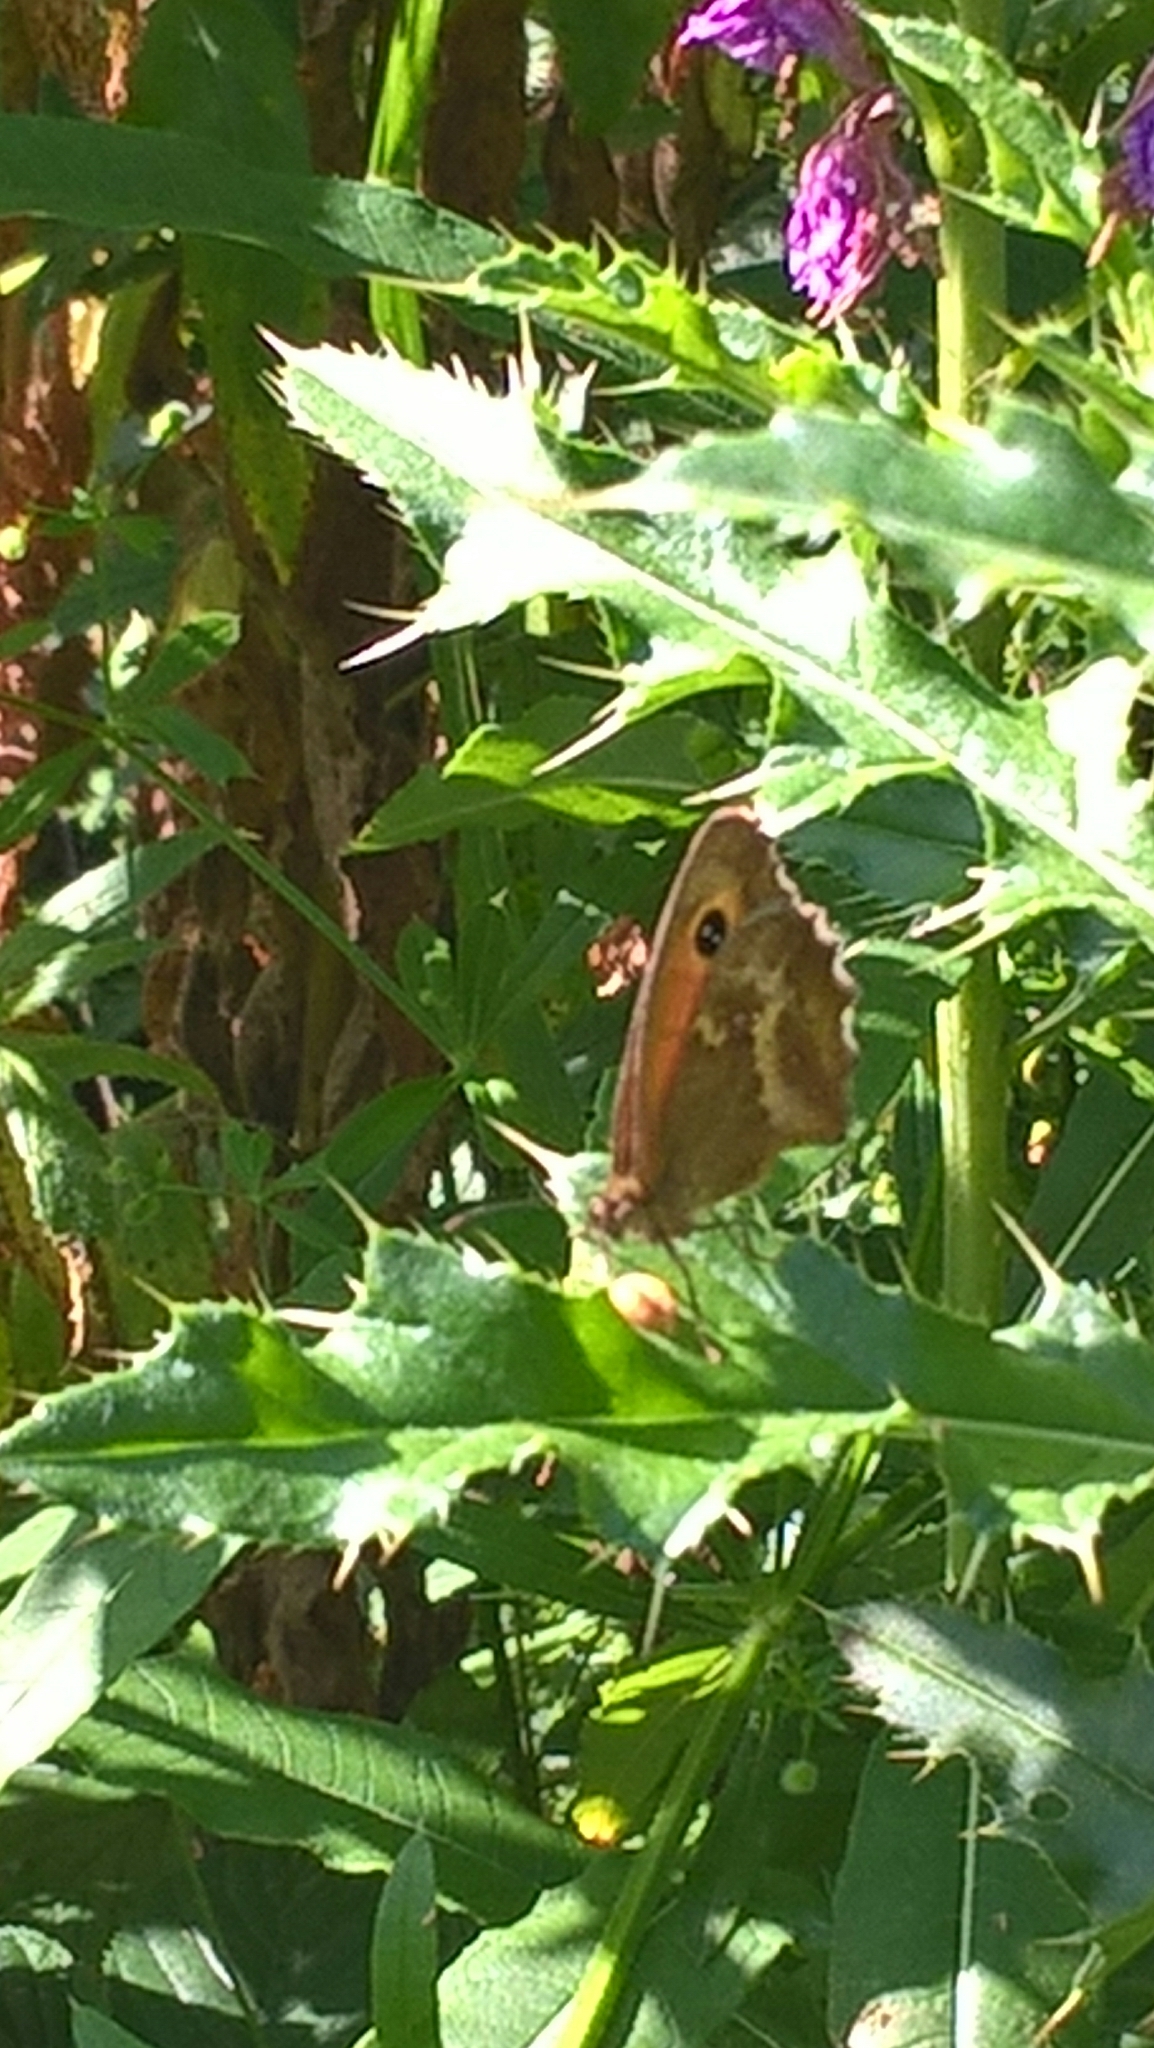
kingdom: Animalia
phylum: Arthropoda
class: Insecta
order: Lepidoptera
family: Nymphalidae
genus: Pyronia
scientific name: Pyronia tithonus
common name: Gatekeeper
